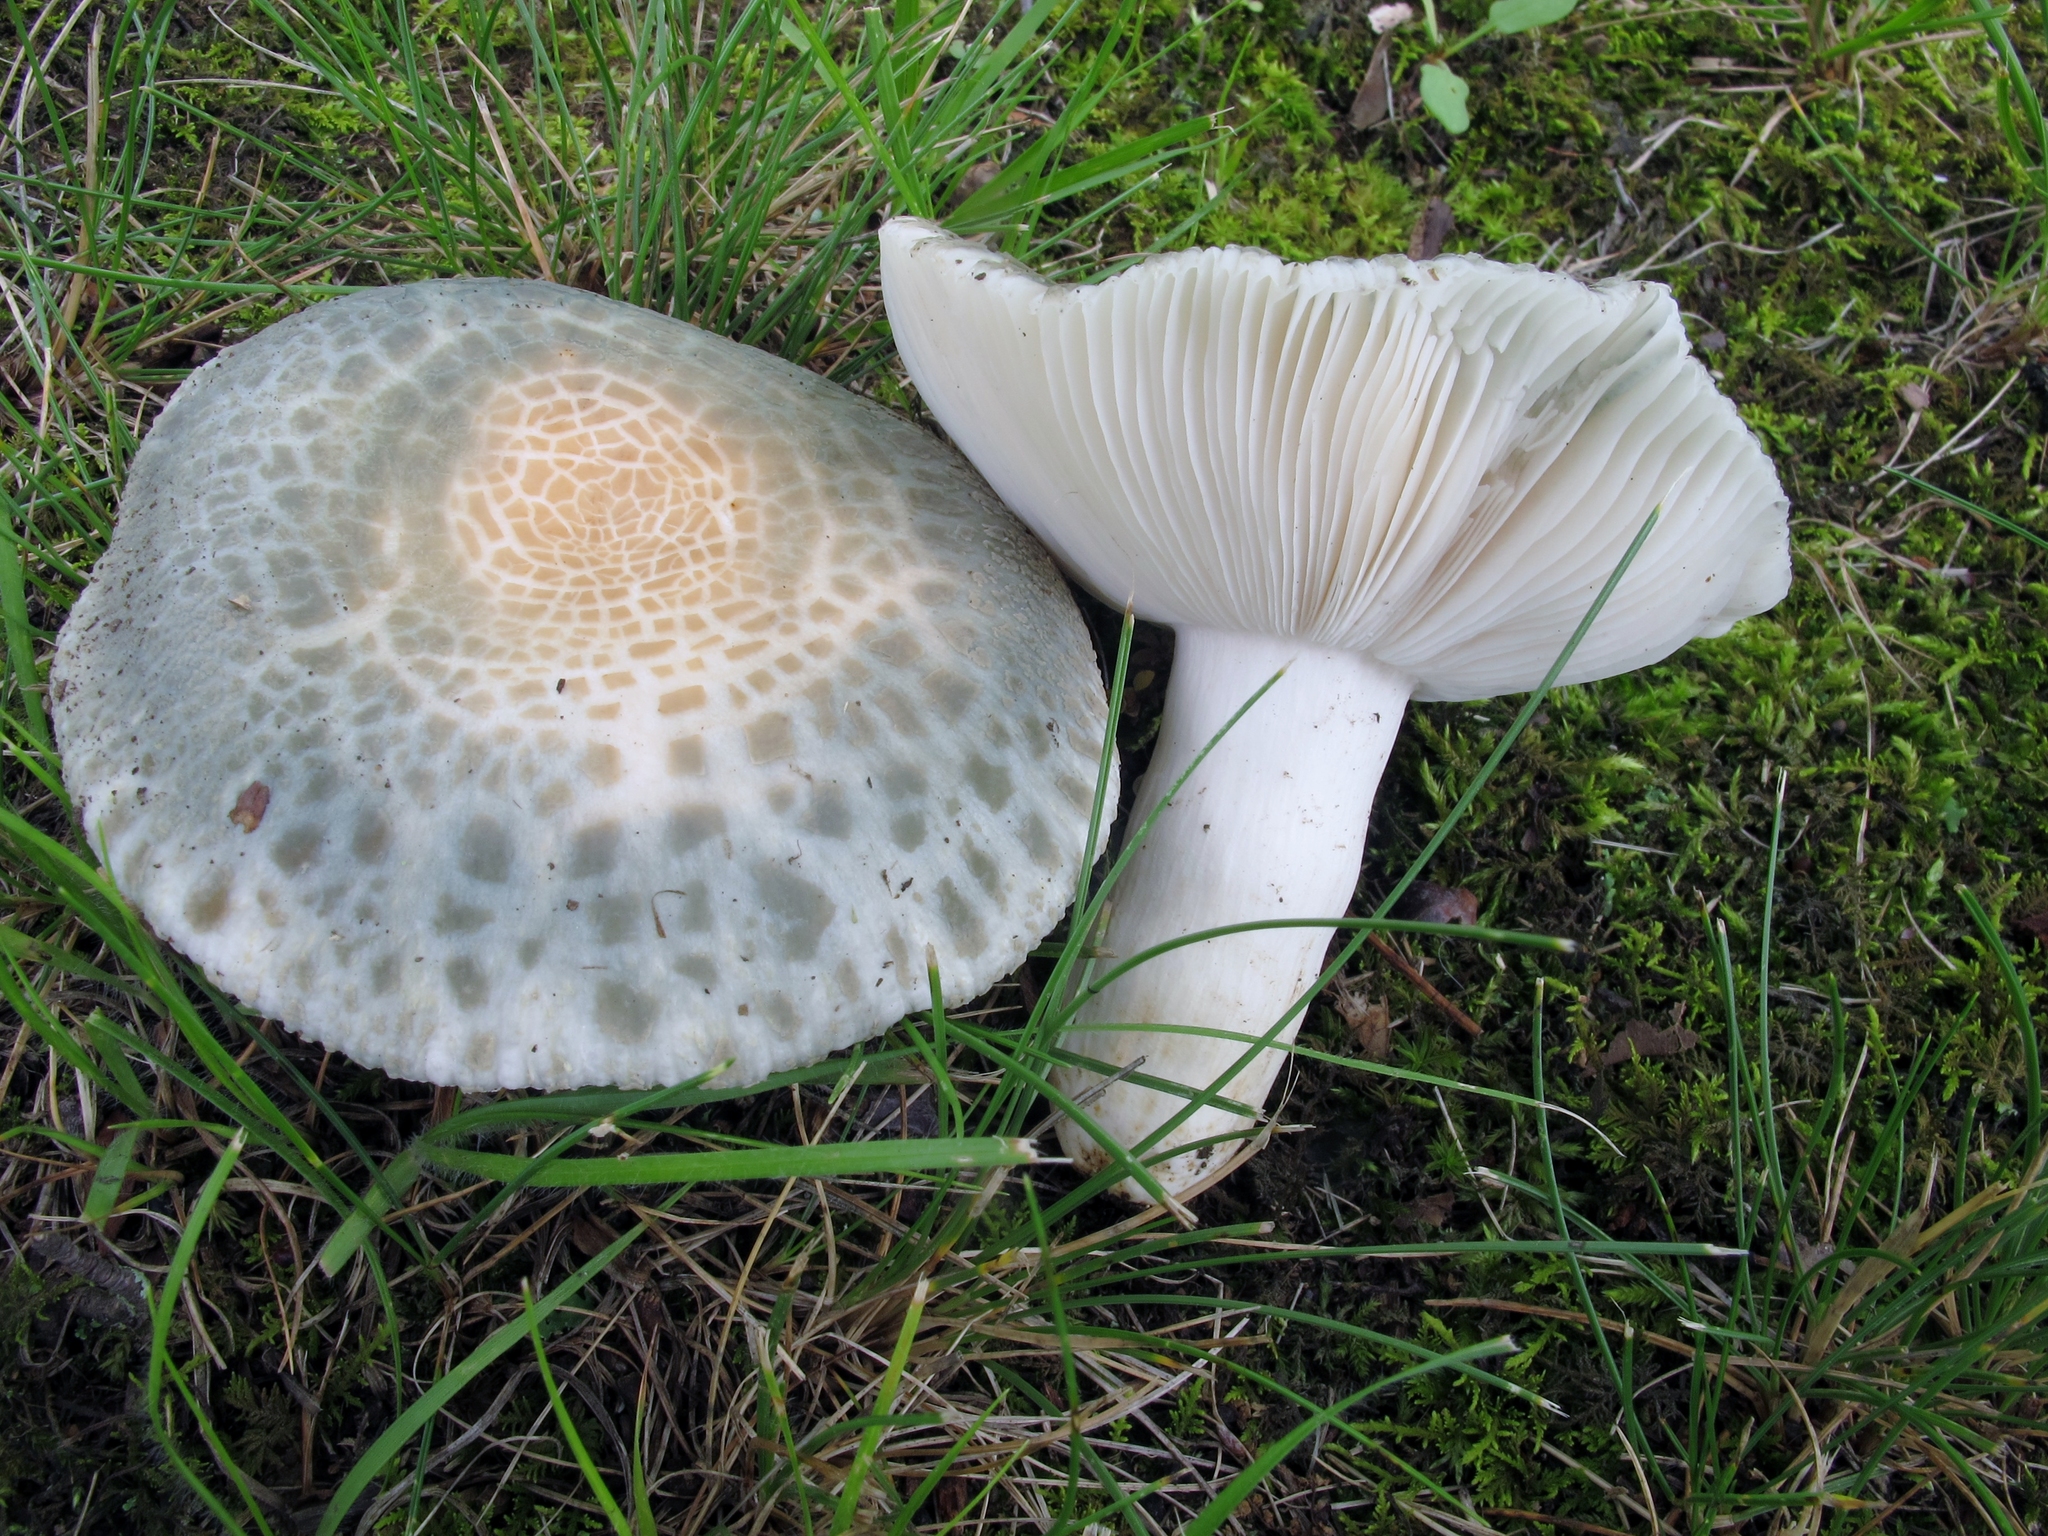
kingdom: Fungi
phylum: Basidiomycota
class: Agaricomycetes
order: Russulales
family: Russulaceae
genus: Russula
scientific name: Russula parvovirescens
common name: Blue-green cracking russula
